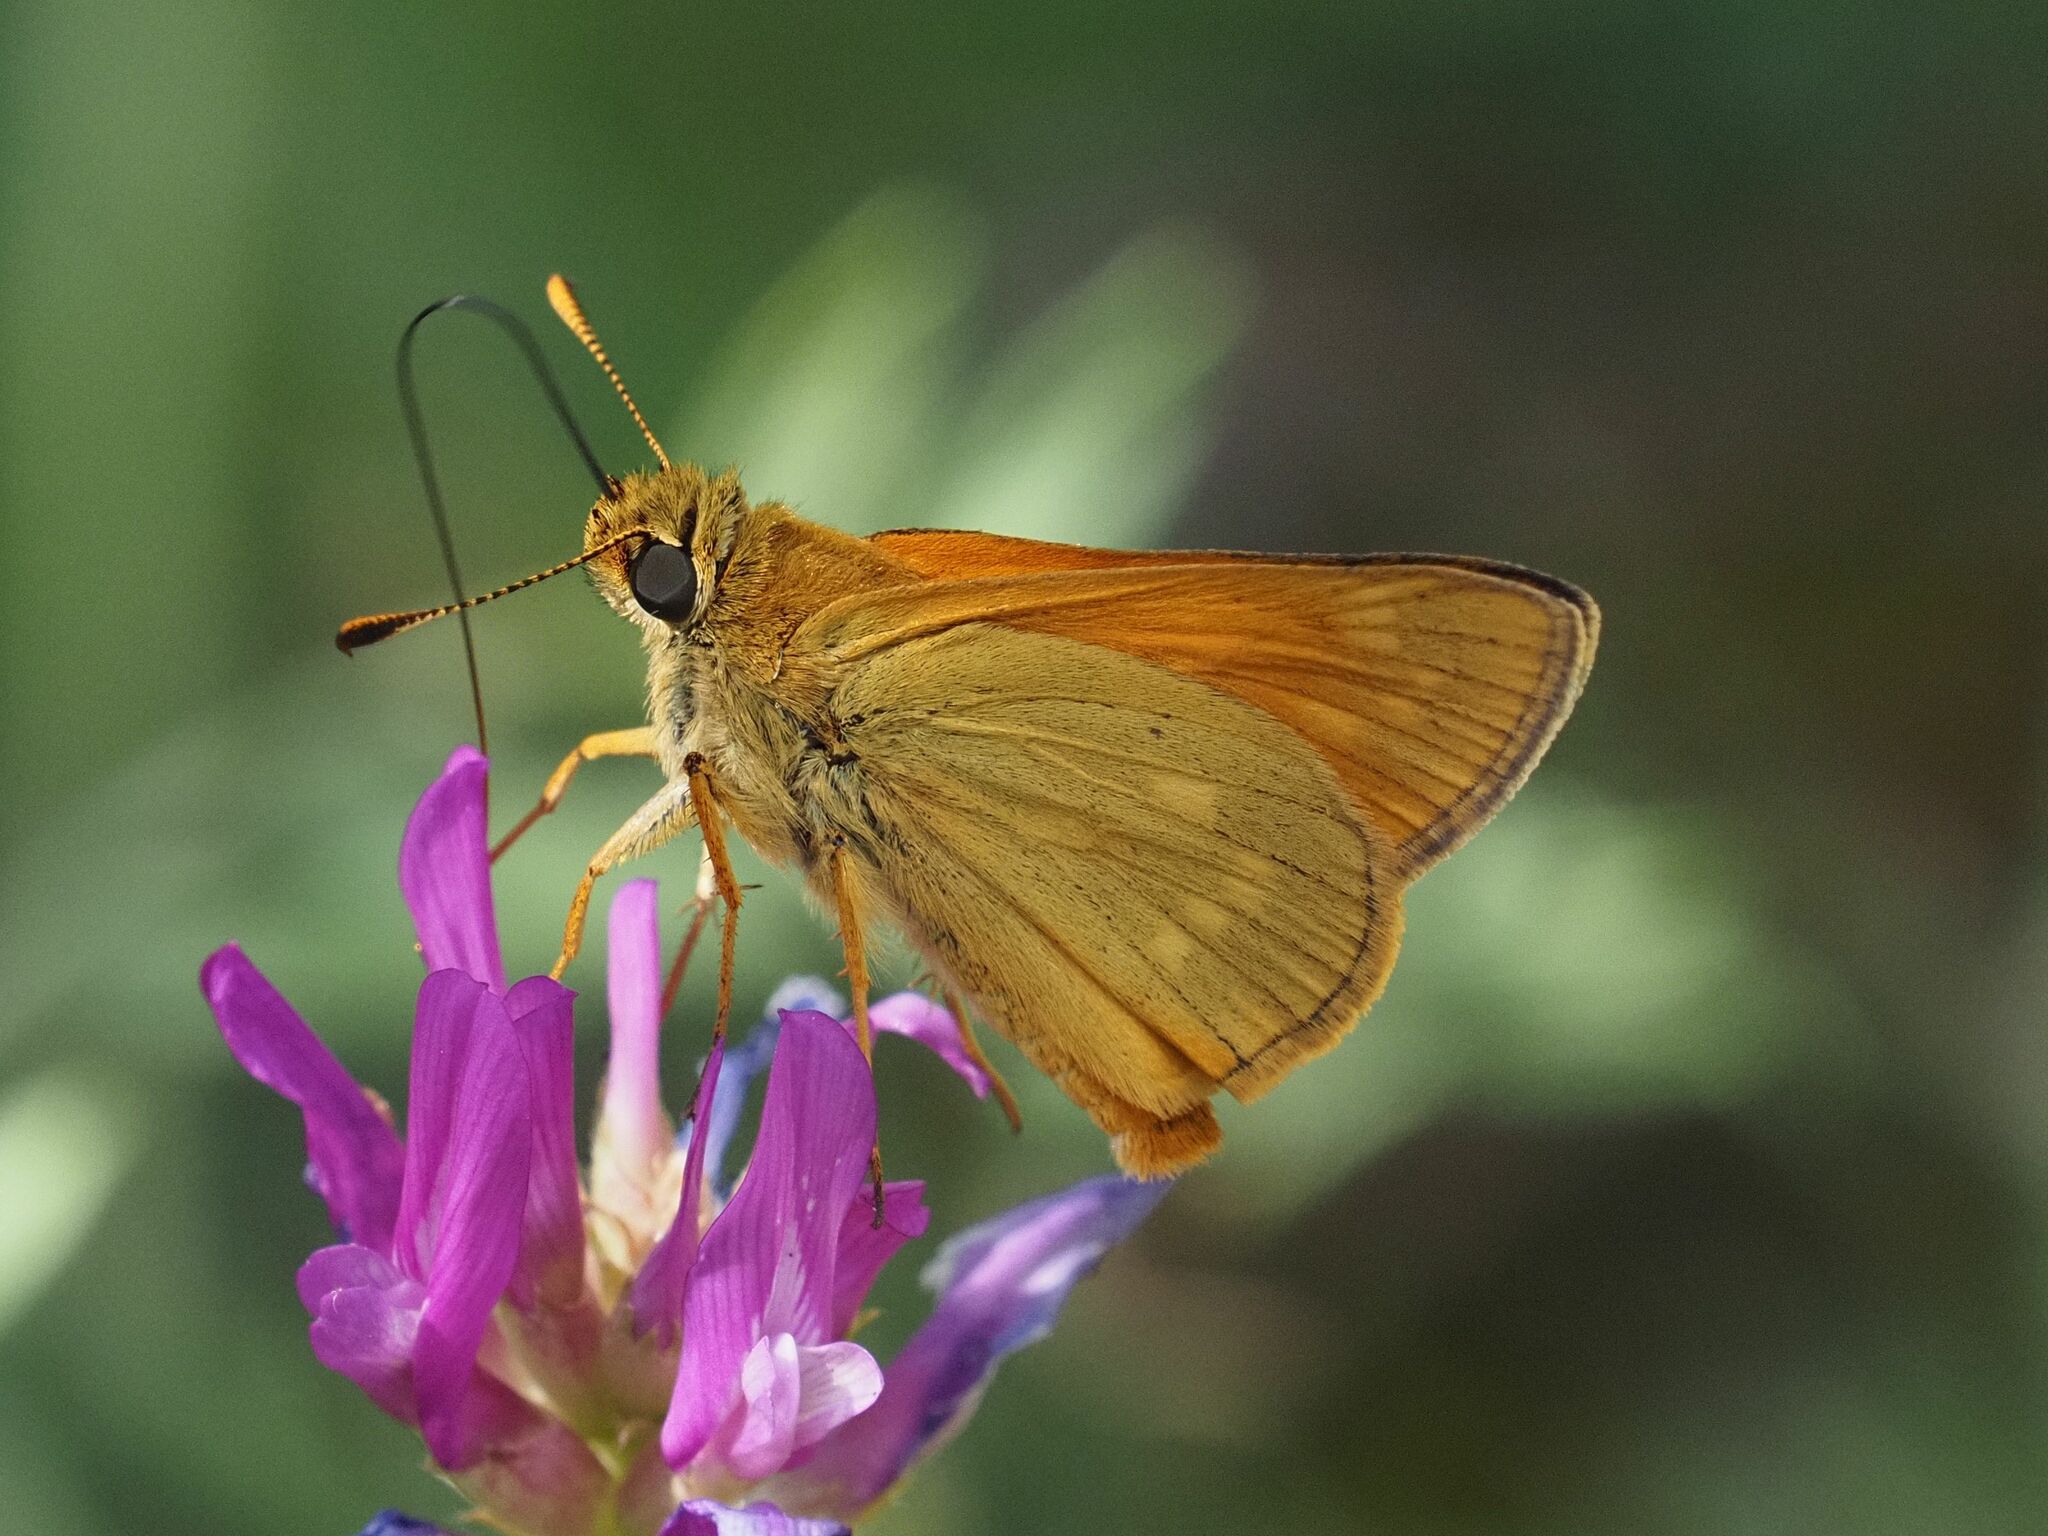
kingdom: Animalia
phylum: Arthropoda
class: Insecta
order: Lepidoptera
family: Hesperiidae
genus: Ochlodes
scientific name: Ochlodes venata
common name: Large skipper
